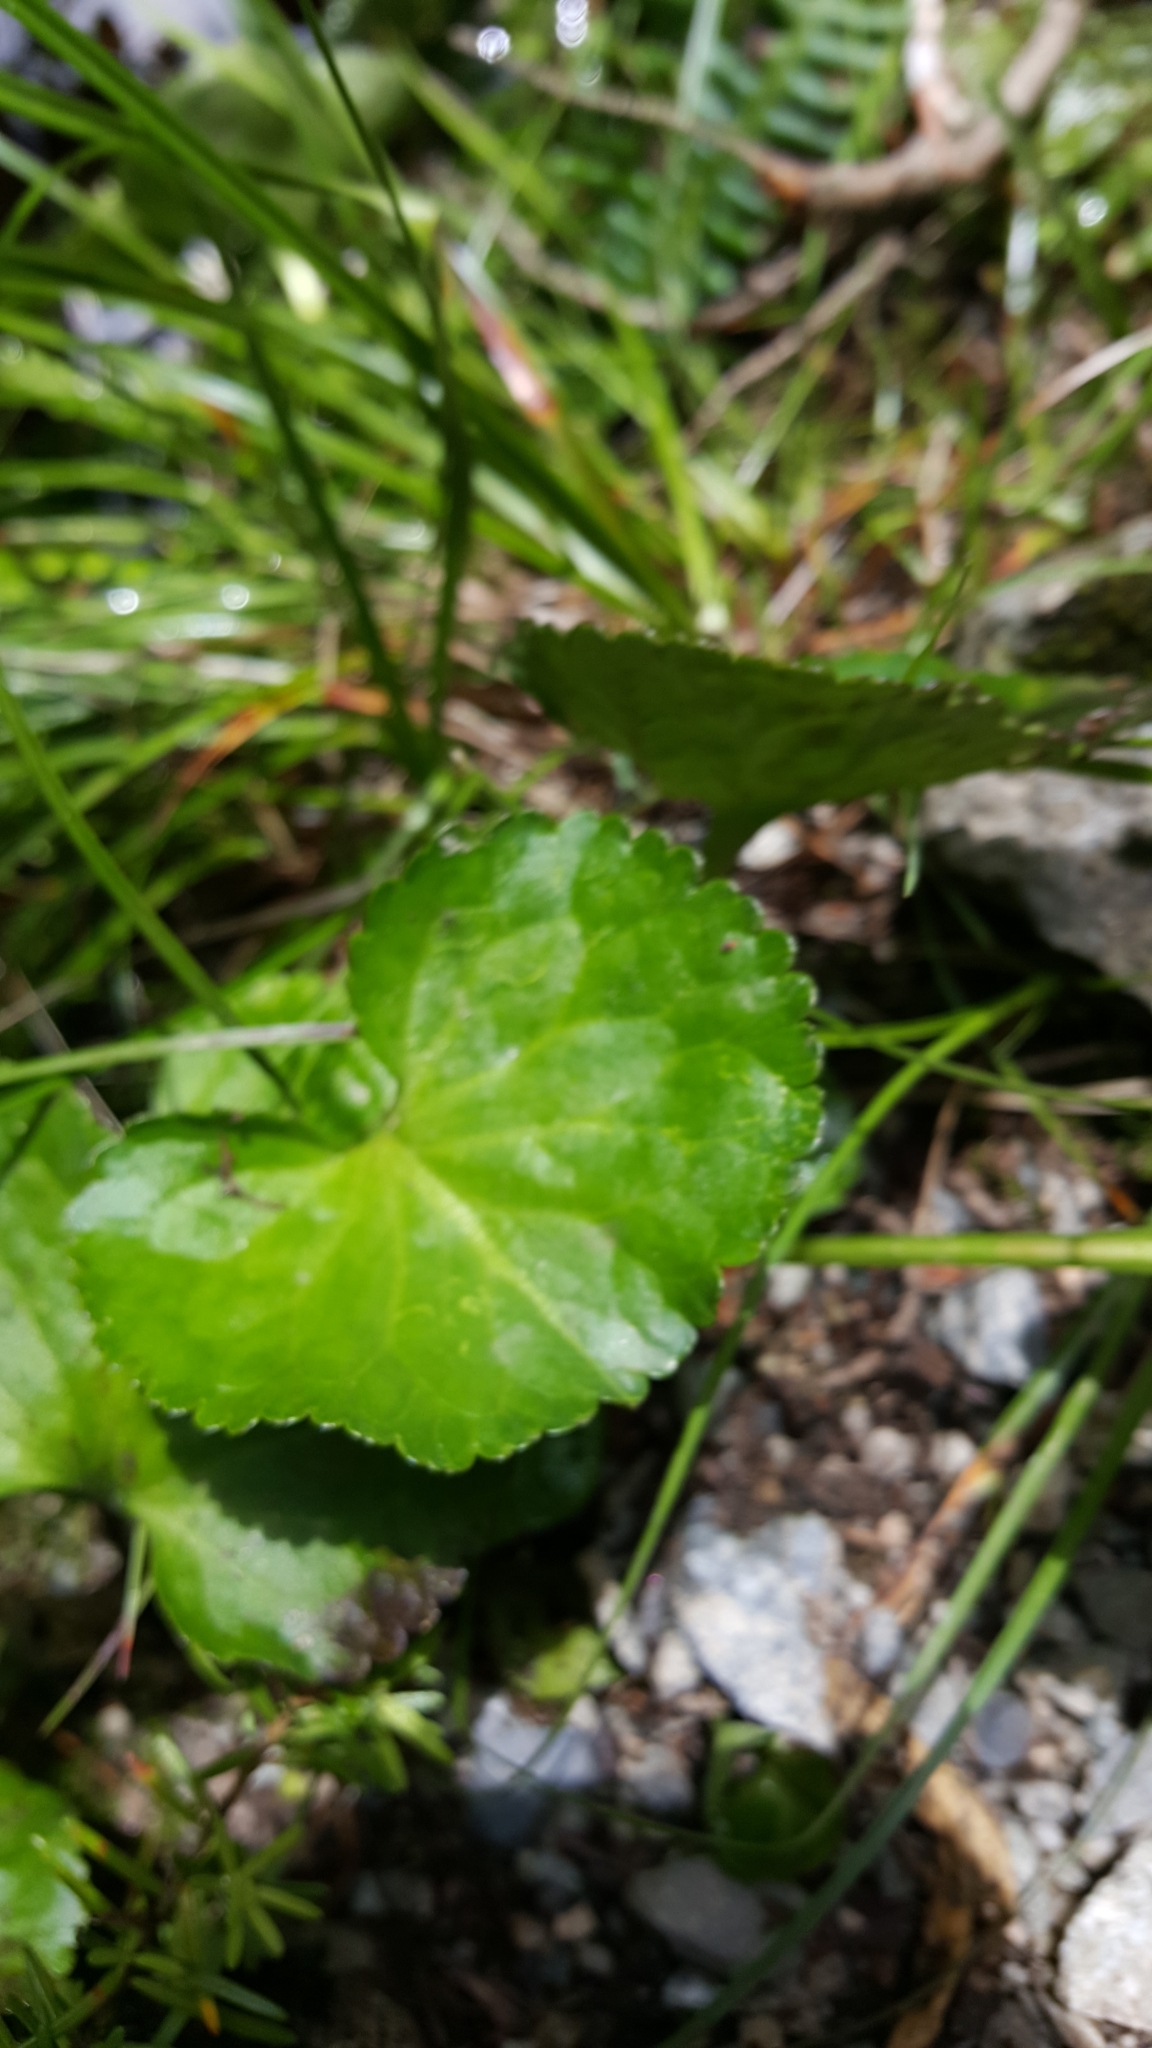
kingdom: Plantae
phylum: Tracheophyta
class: Magnoliopsida
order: Asterales
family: Menyanthaceae
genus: Nephrophyllidium
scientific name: Nephrophyllidium crista-galli
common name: Deer-cabbage
